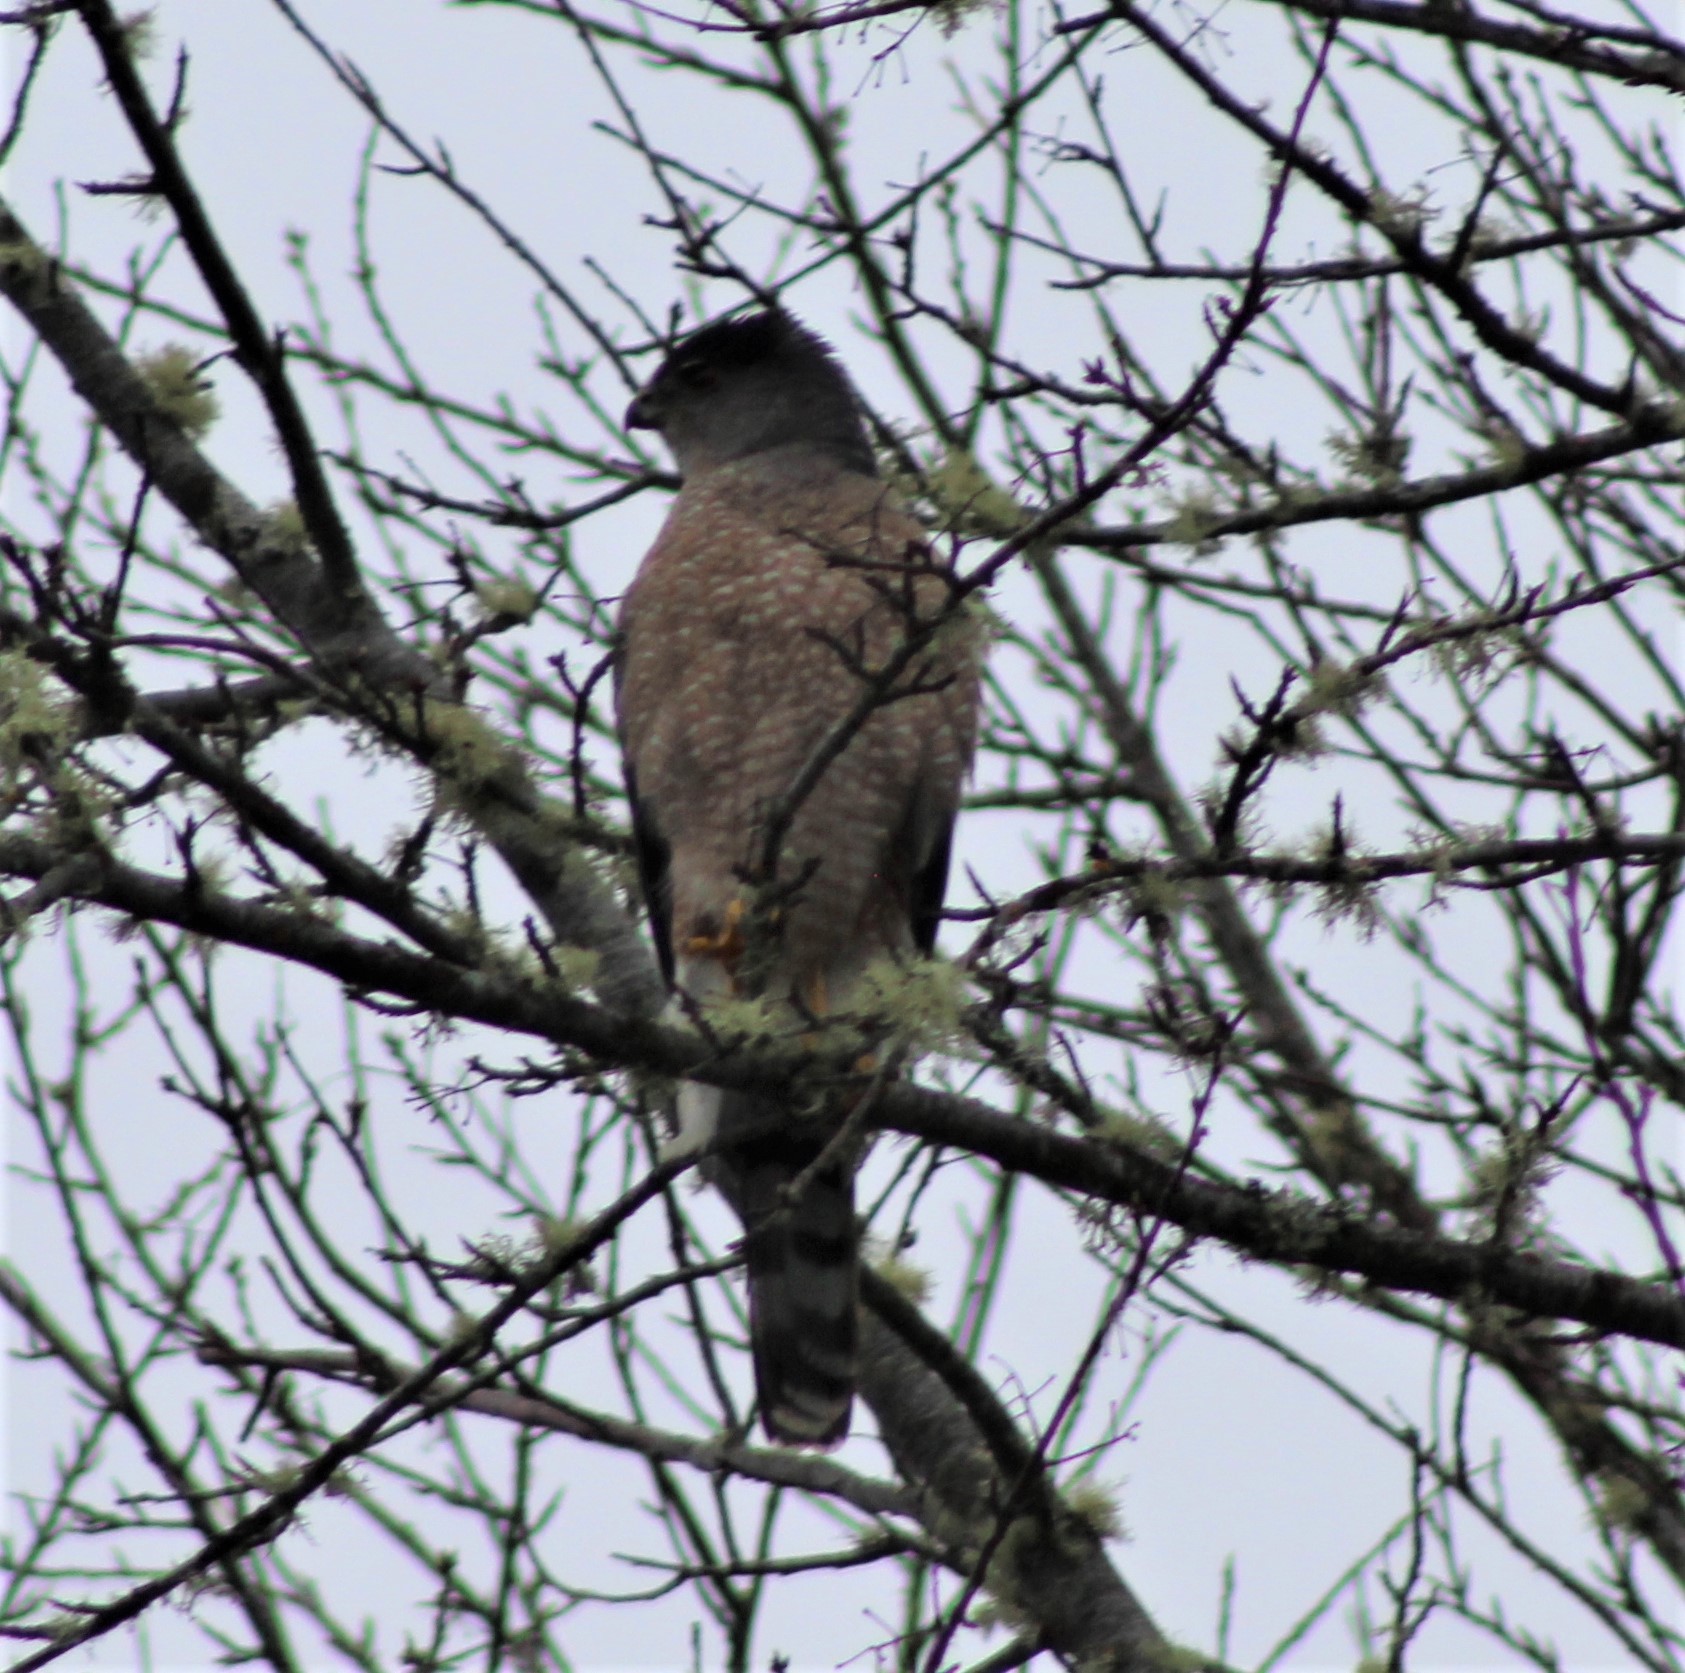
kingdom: Animalia
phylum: Chordata
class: Aves
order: Accipitriformes
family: Accipitridae
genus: Accipiter
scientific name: Accipiter cooperii
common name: Cooper's hawk
